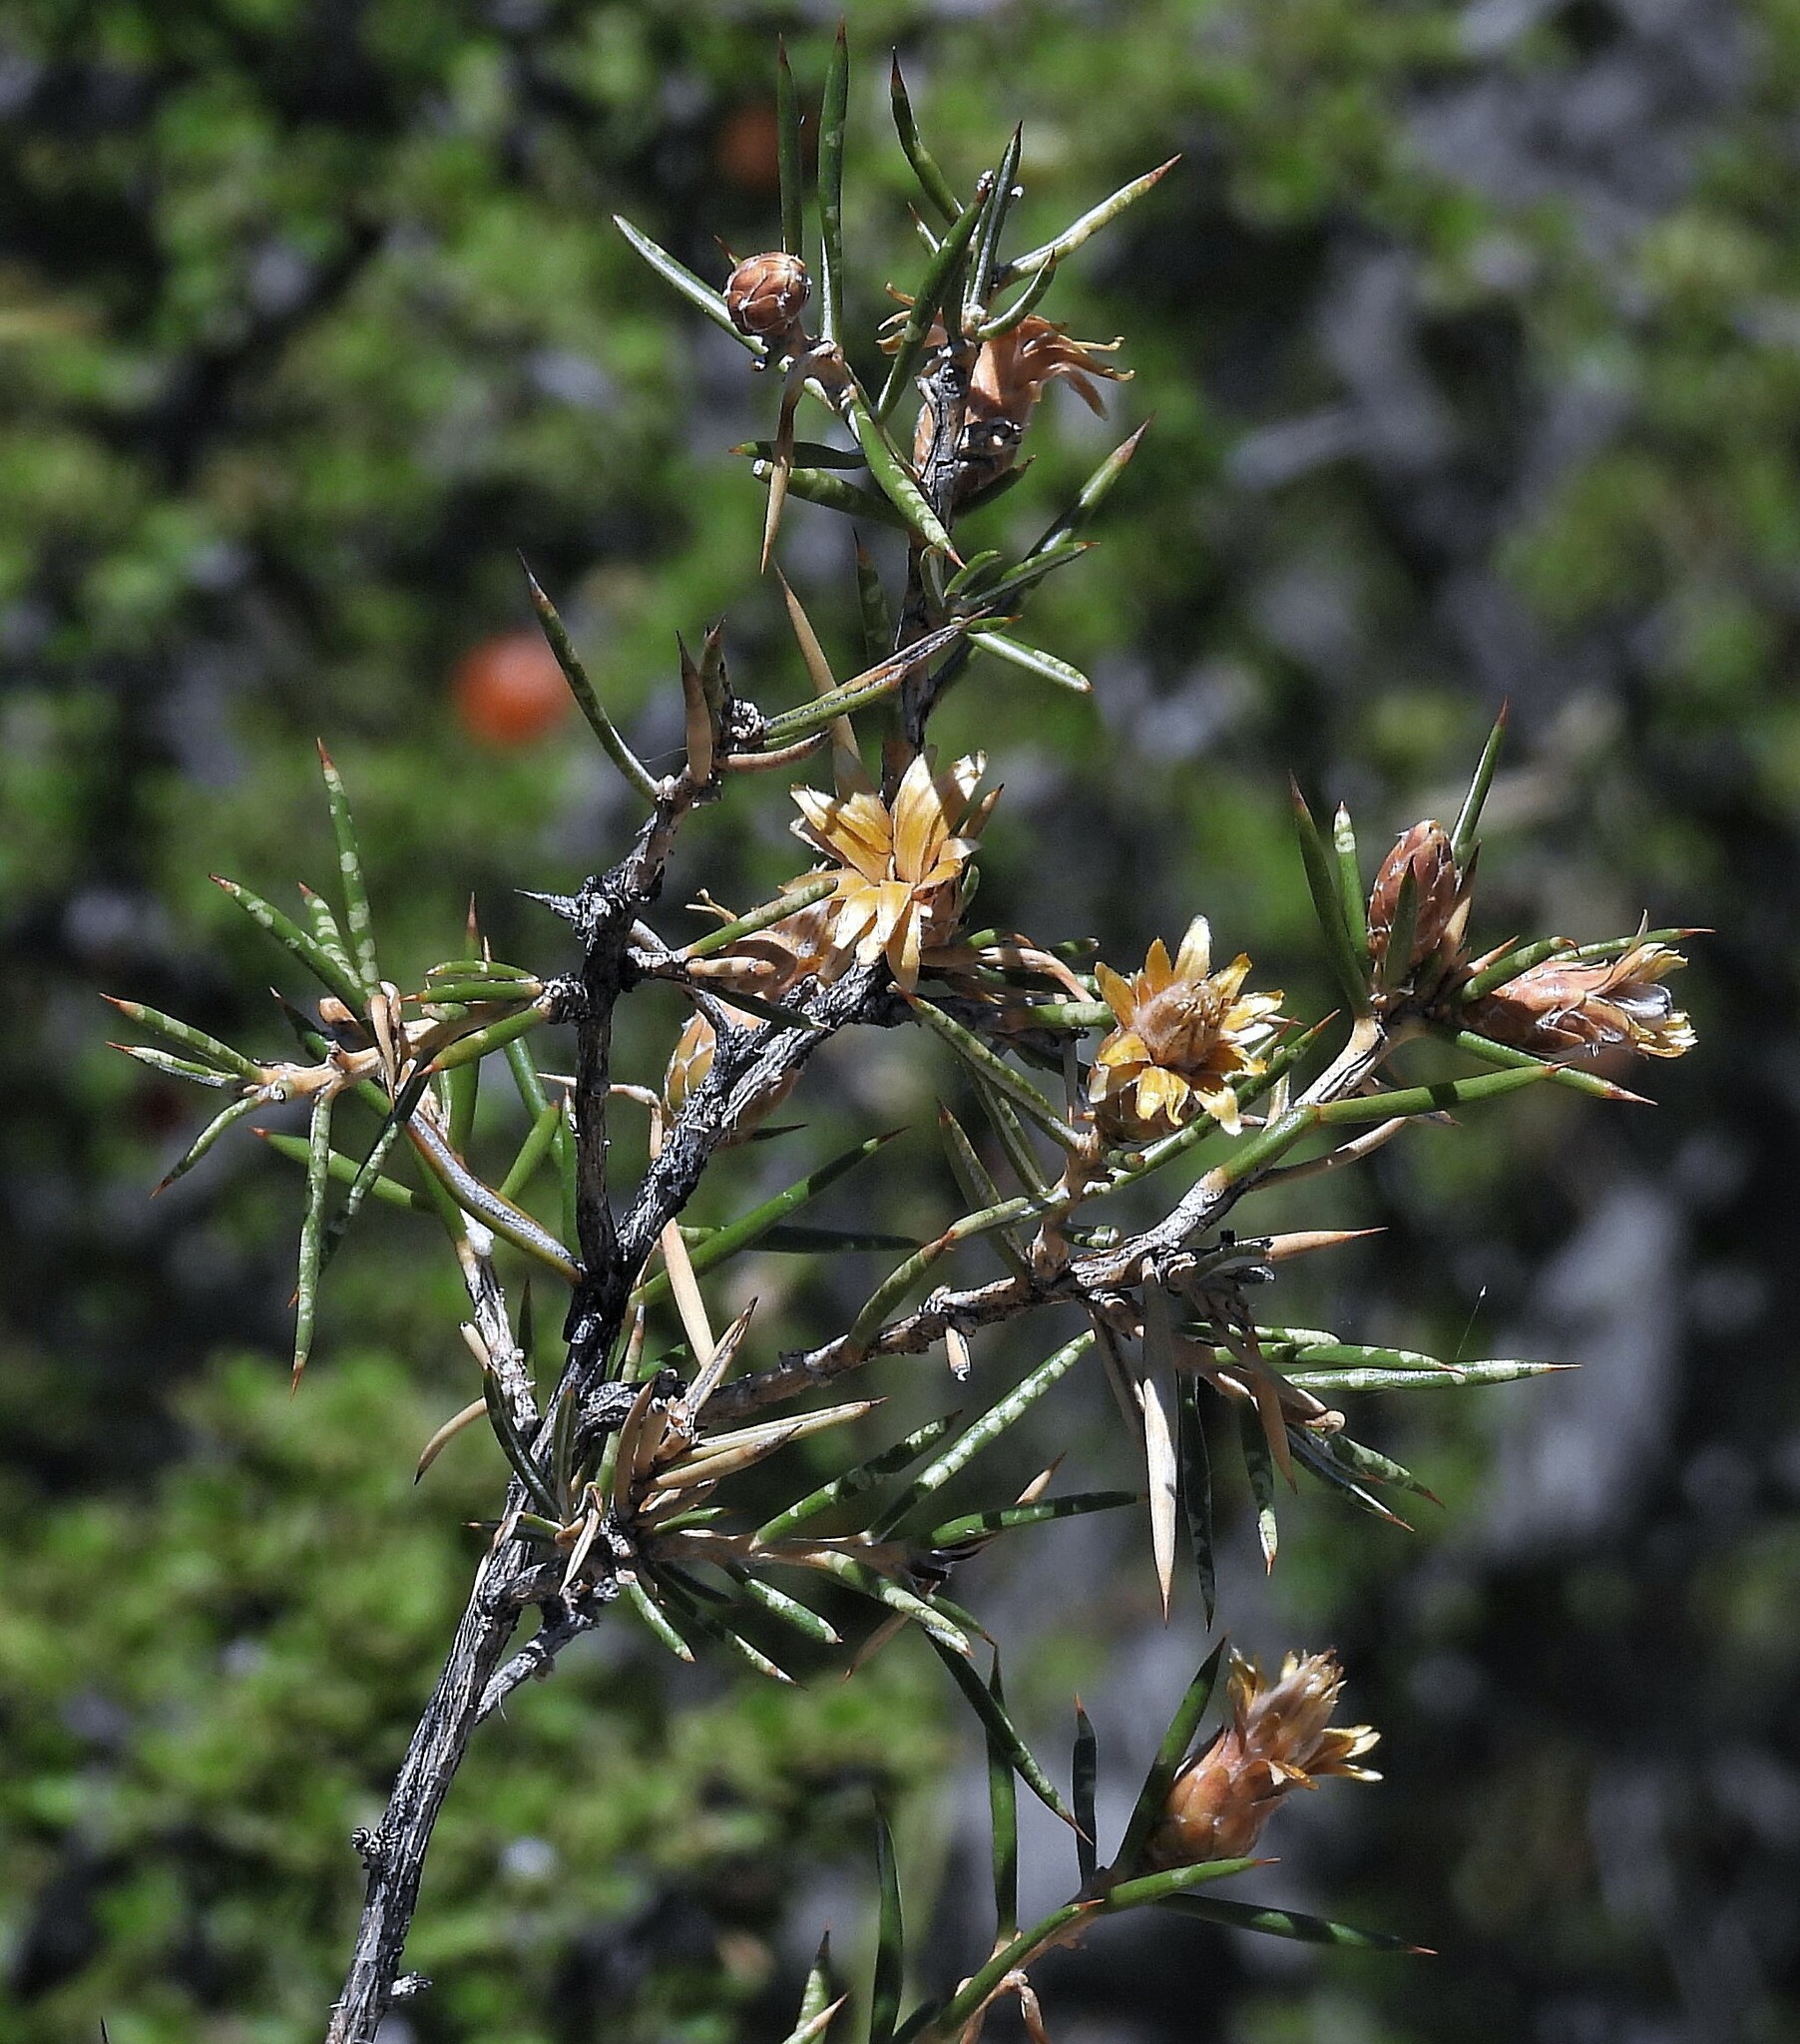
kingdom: Plantae
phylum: Tracheophyta
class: Magnoliopsida
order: Asterales
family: Asteraceae
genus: Chuquiraga
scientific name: Chuquiraga erinacea
